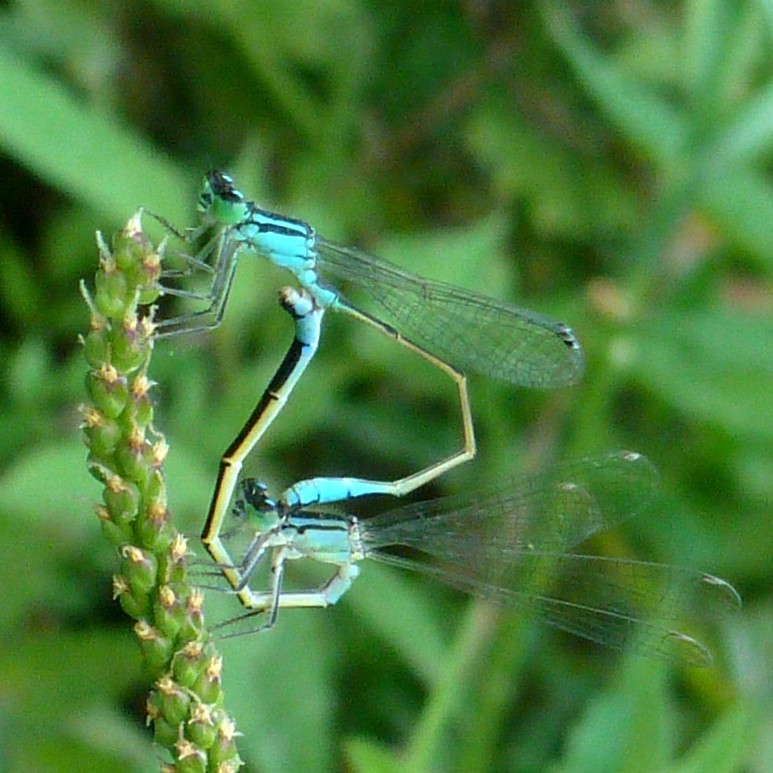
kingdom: Animalia
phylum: Arthropoda
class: Insecta
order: Odonata
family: Coenagrionidae
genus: Ischnura
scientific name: Ischnura elegans
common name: Blue-tailed damselfly
